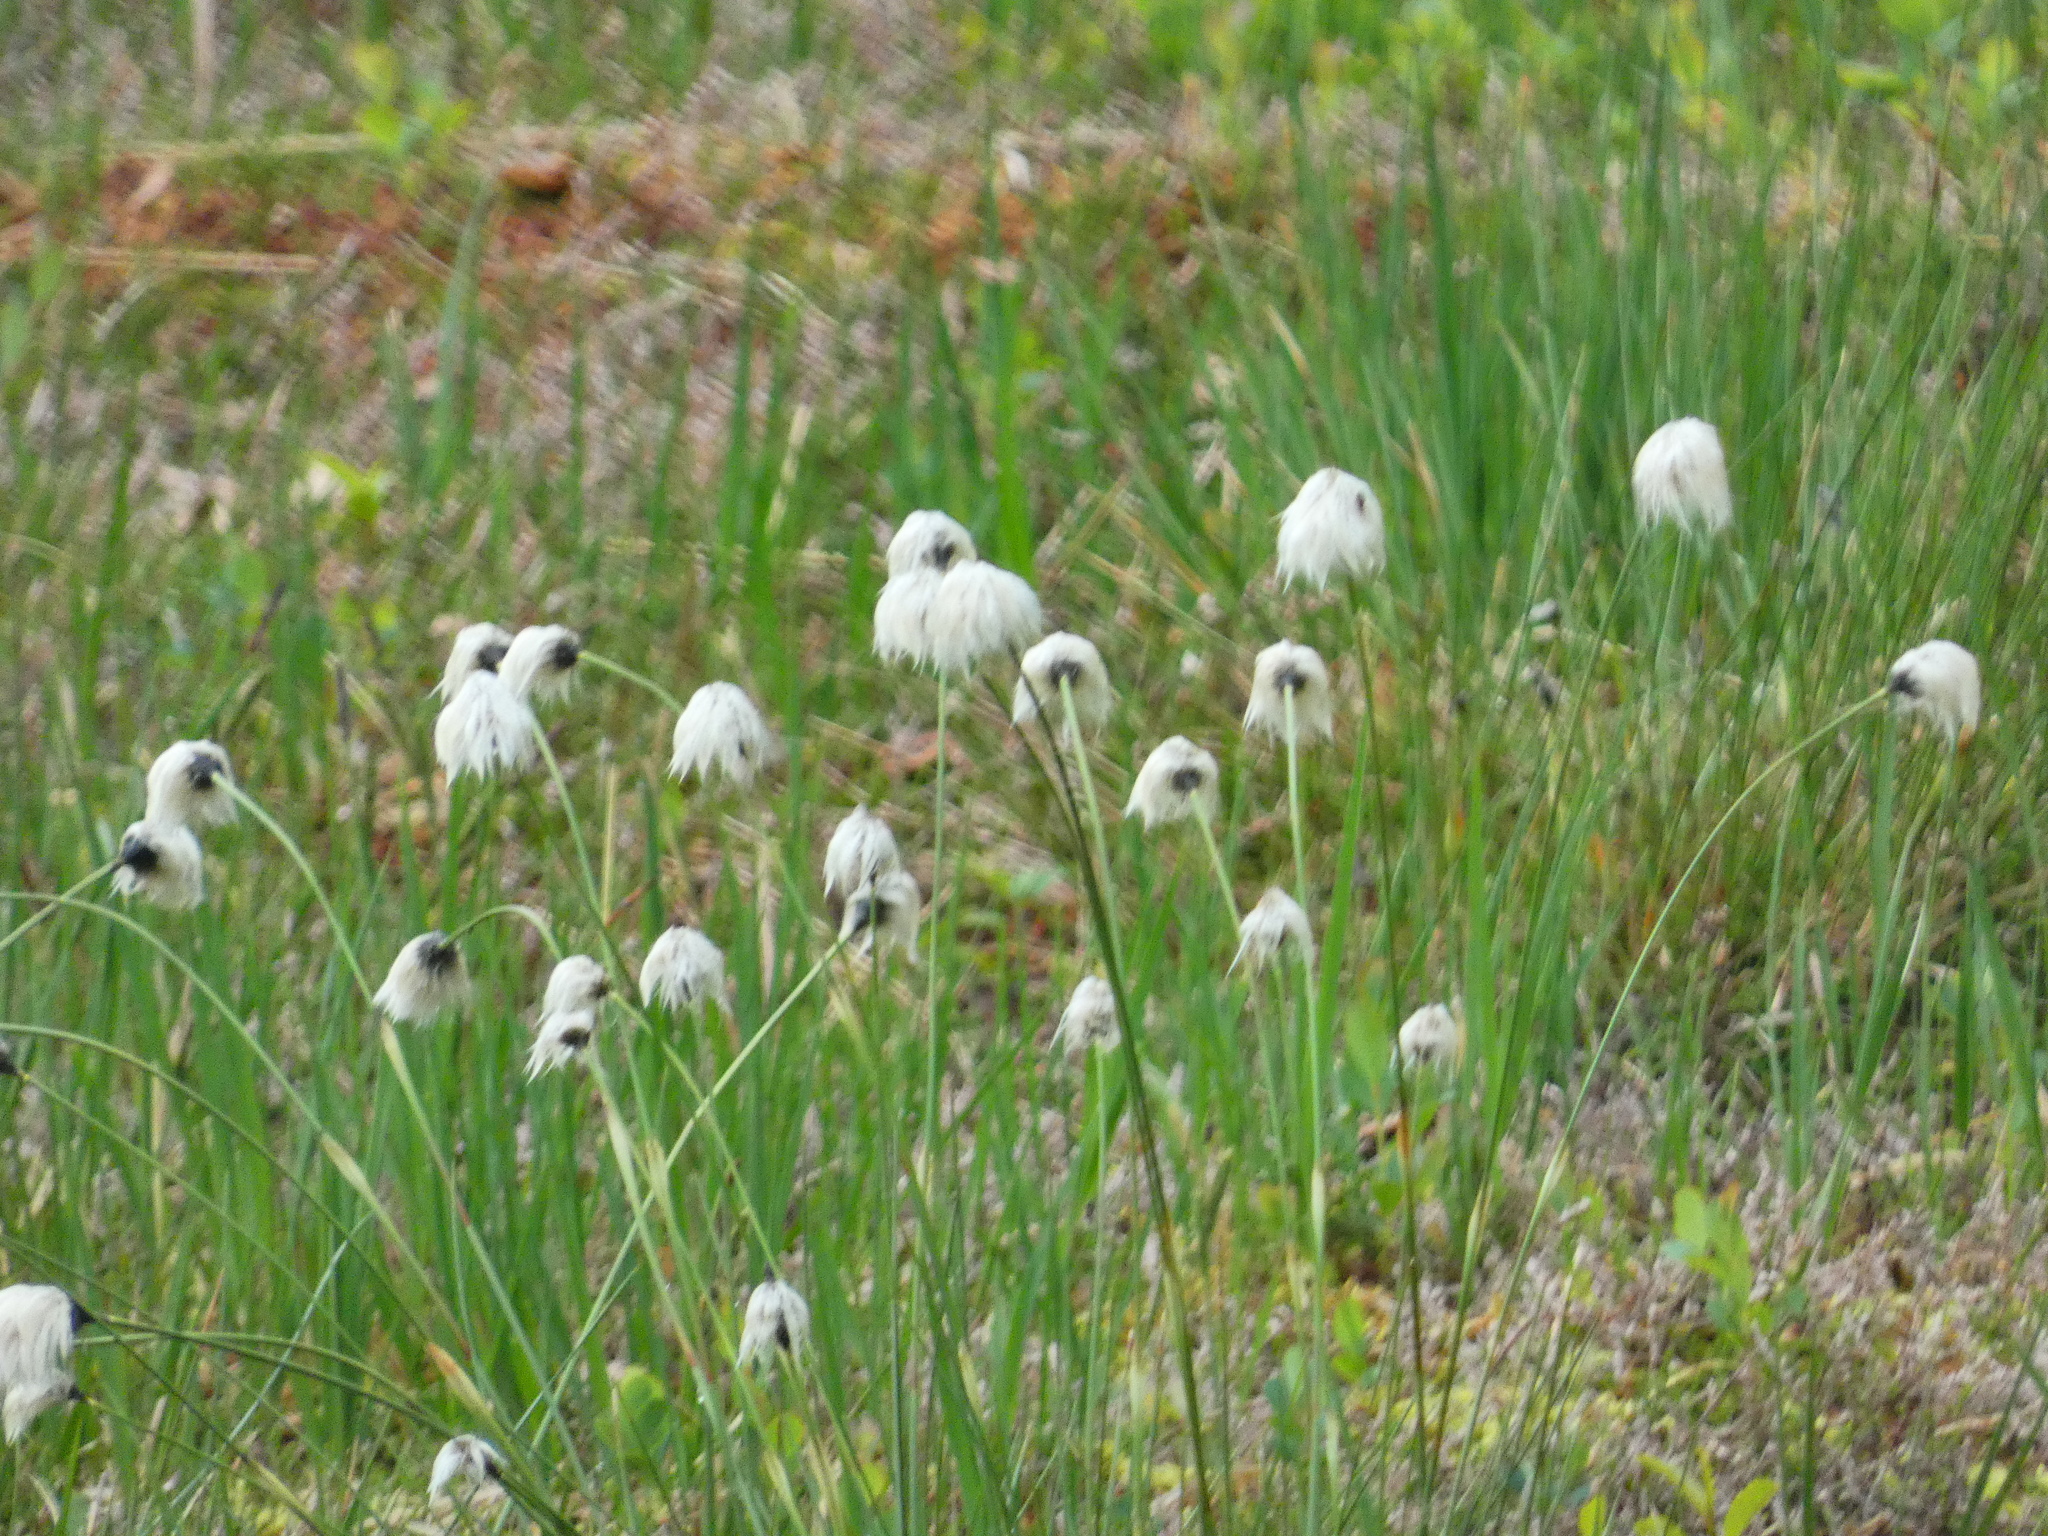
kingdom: Plantae
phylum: Tracheophyta
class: Liliopsida
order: Poales
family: Cyperaceae
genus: Eriophorum
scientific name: Eriophorum vaginatum
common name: Hare's-tail cottongrass
